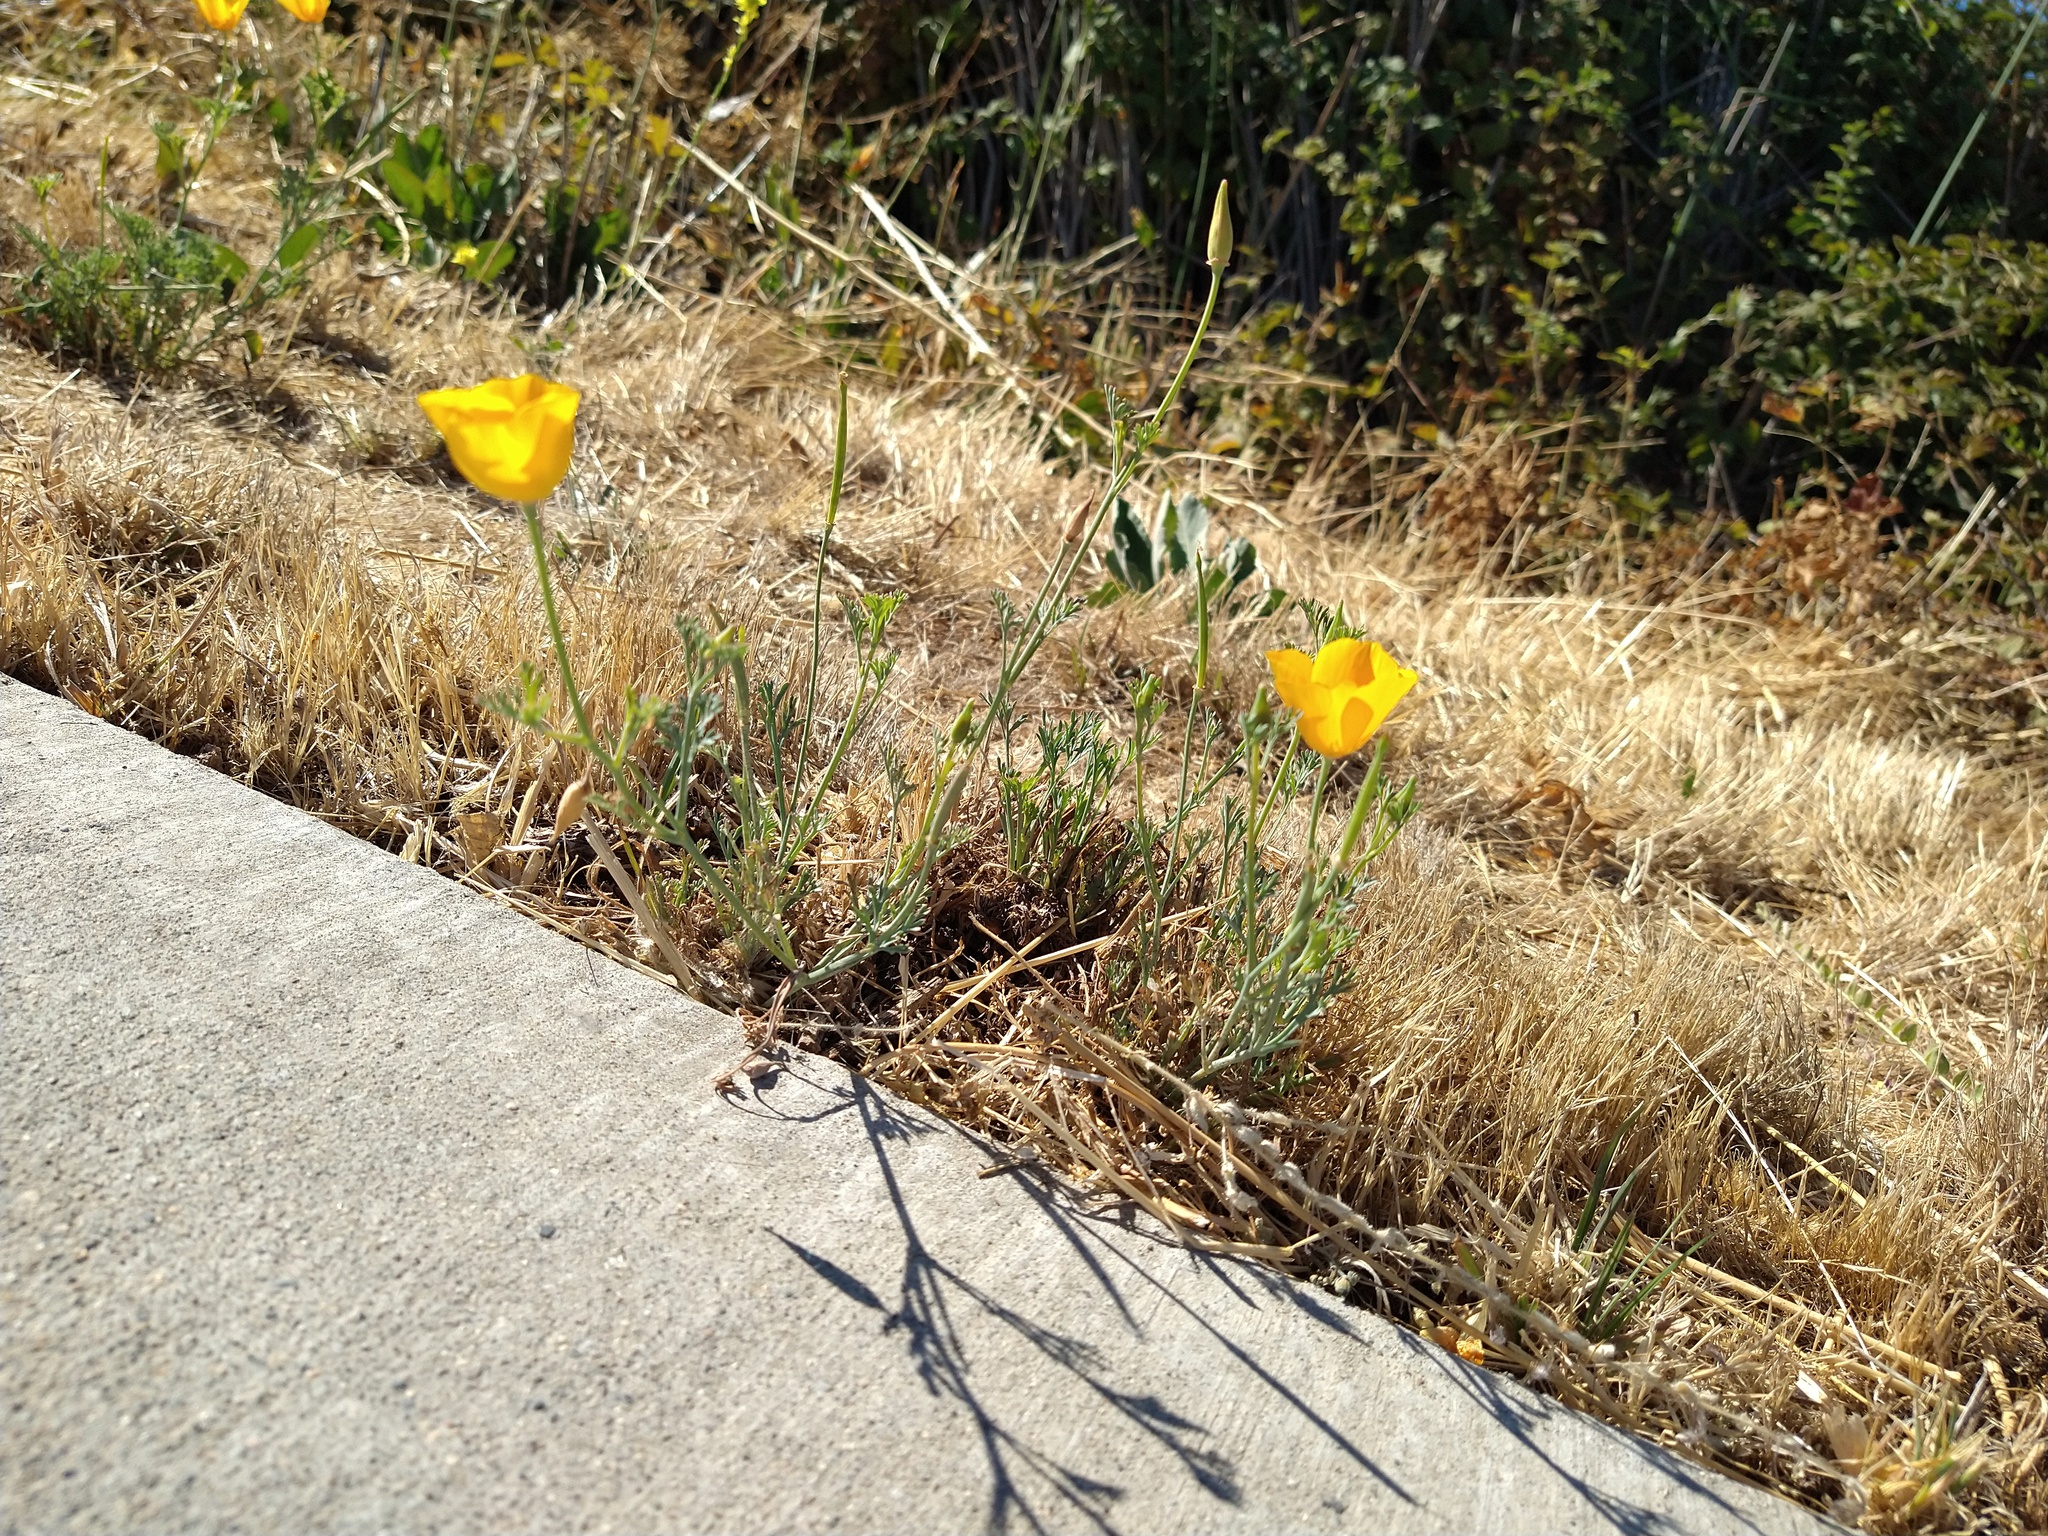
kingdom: Plantae
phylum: Tracheophyta
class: Magnoliopsida
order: Ranunculales
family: Papaveraceae
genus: Eschscholzia
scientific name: Eschscholzia californica
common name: California poppy
